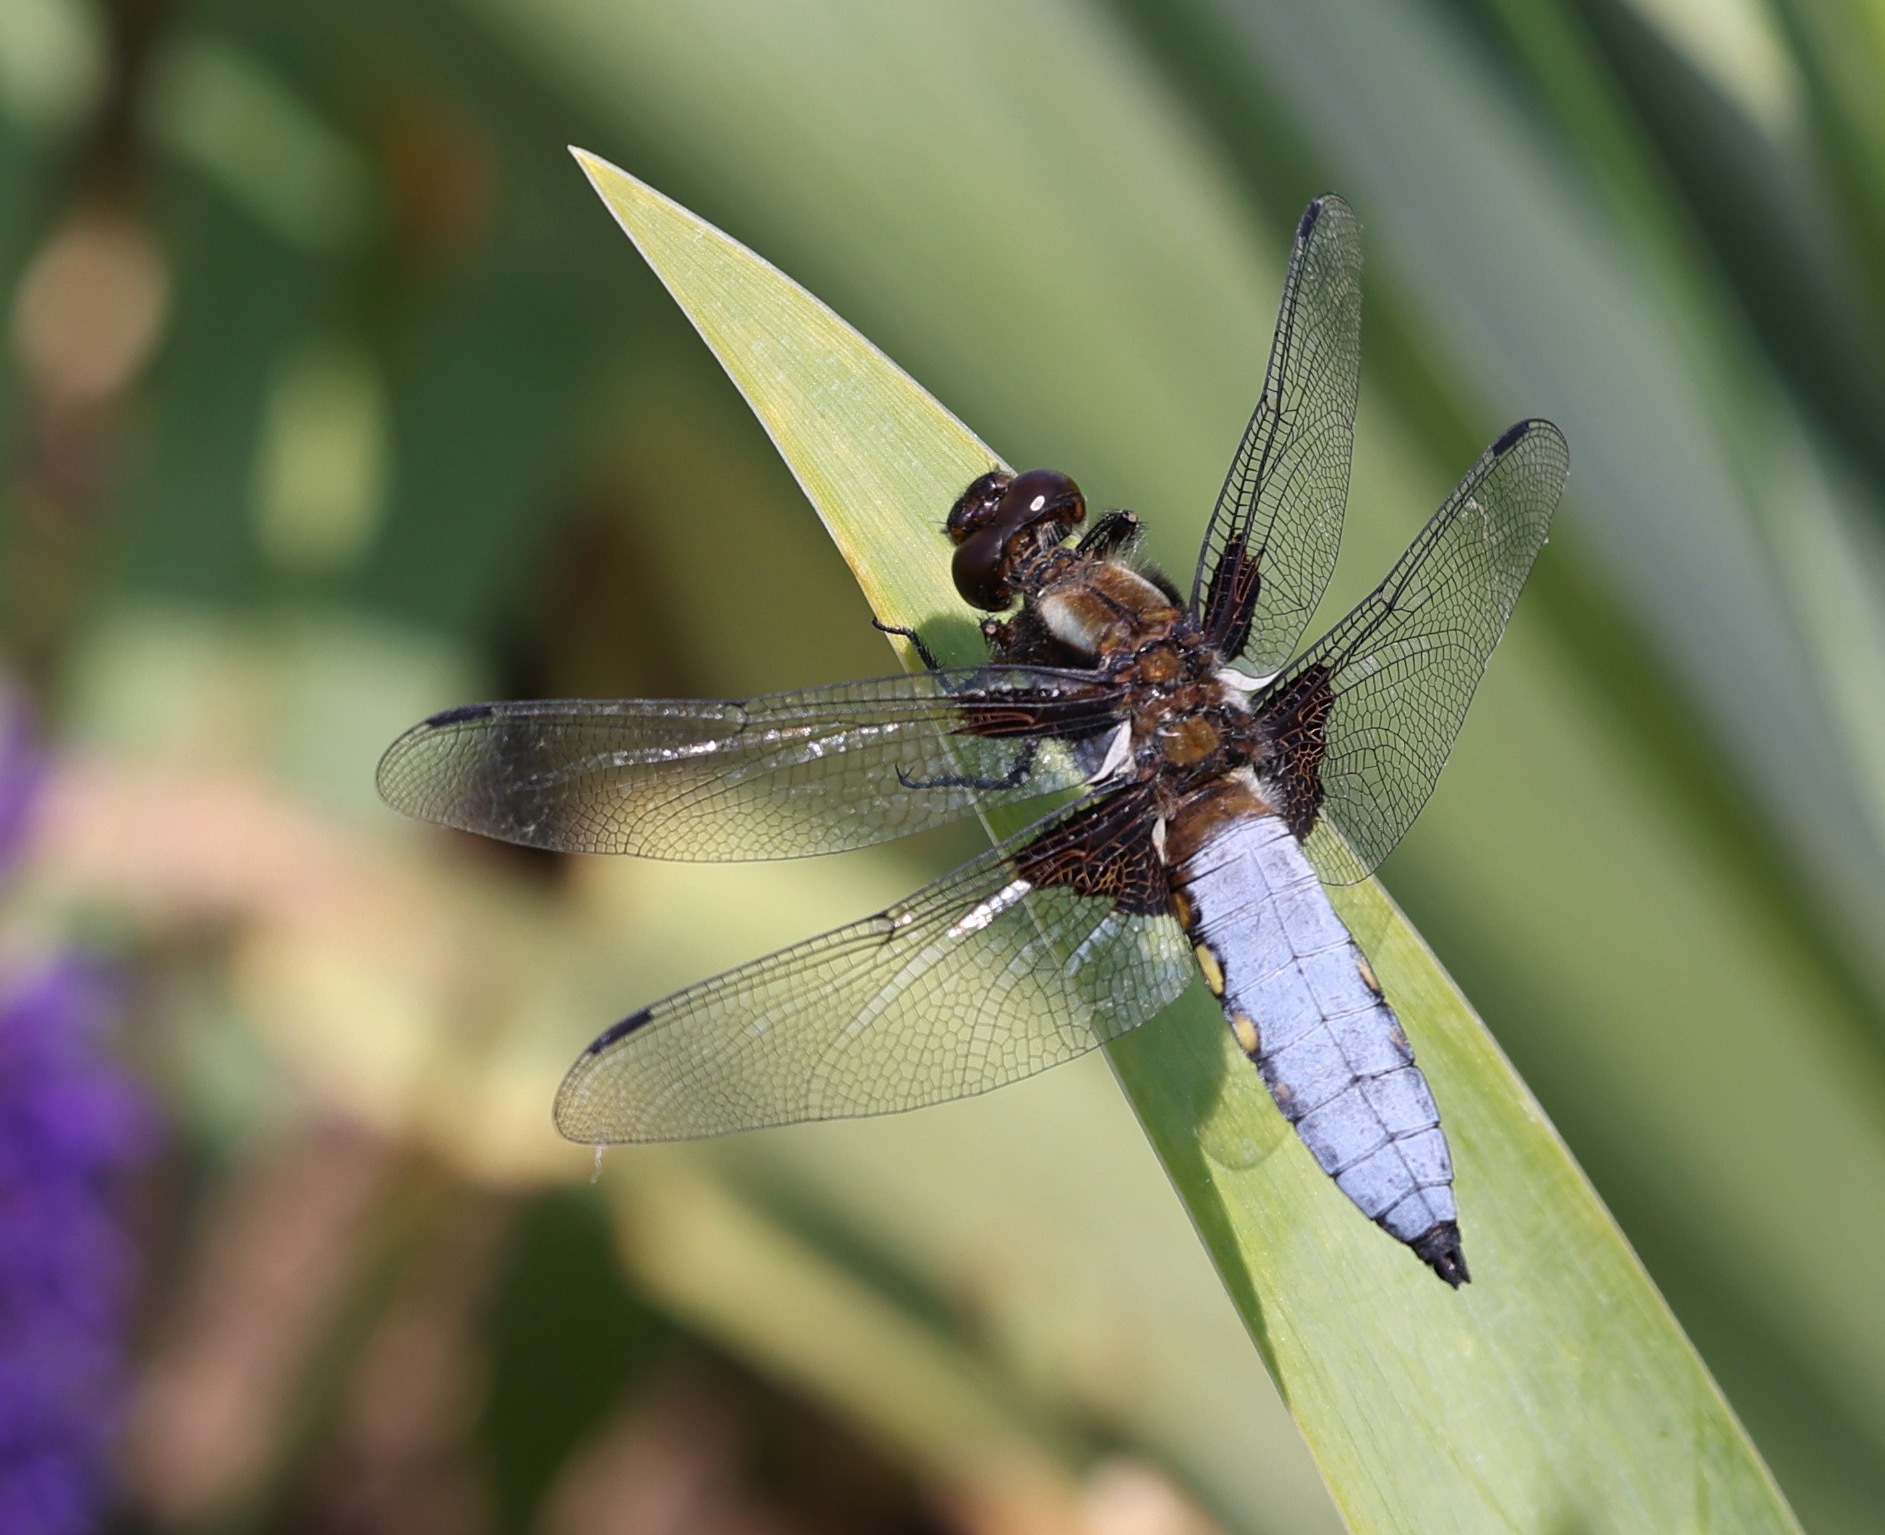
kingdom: Animalia
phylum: Arthropoda
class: Insecta
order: Odonata
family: Libellulidae
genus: Libellula
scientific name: Libellula depressa
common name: Broad-bodied chaser
